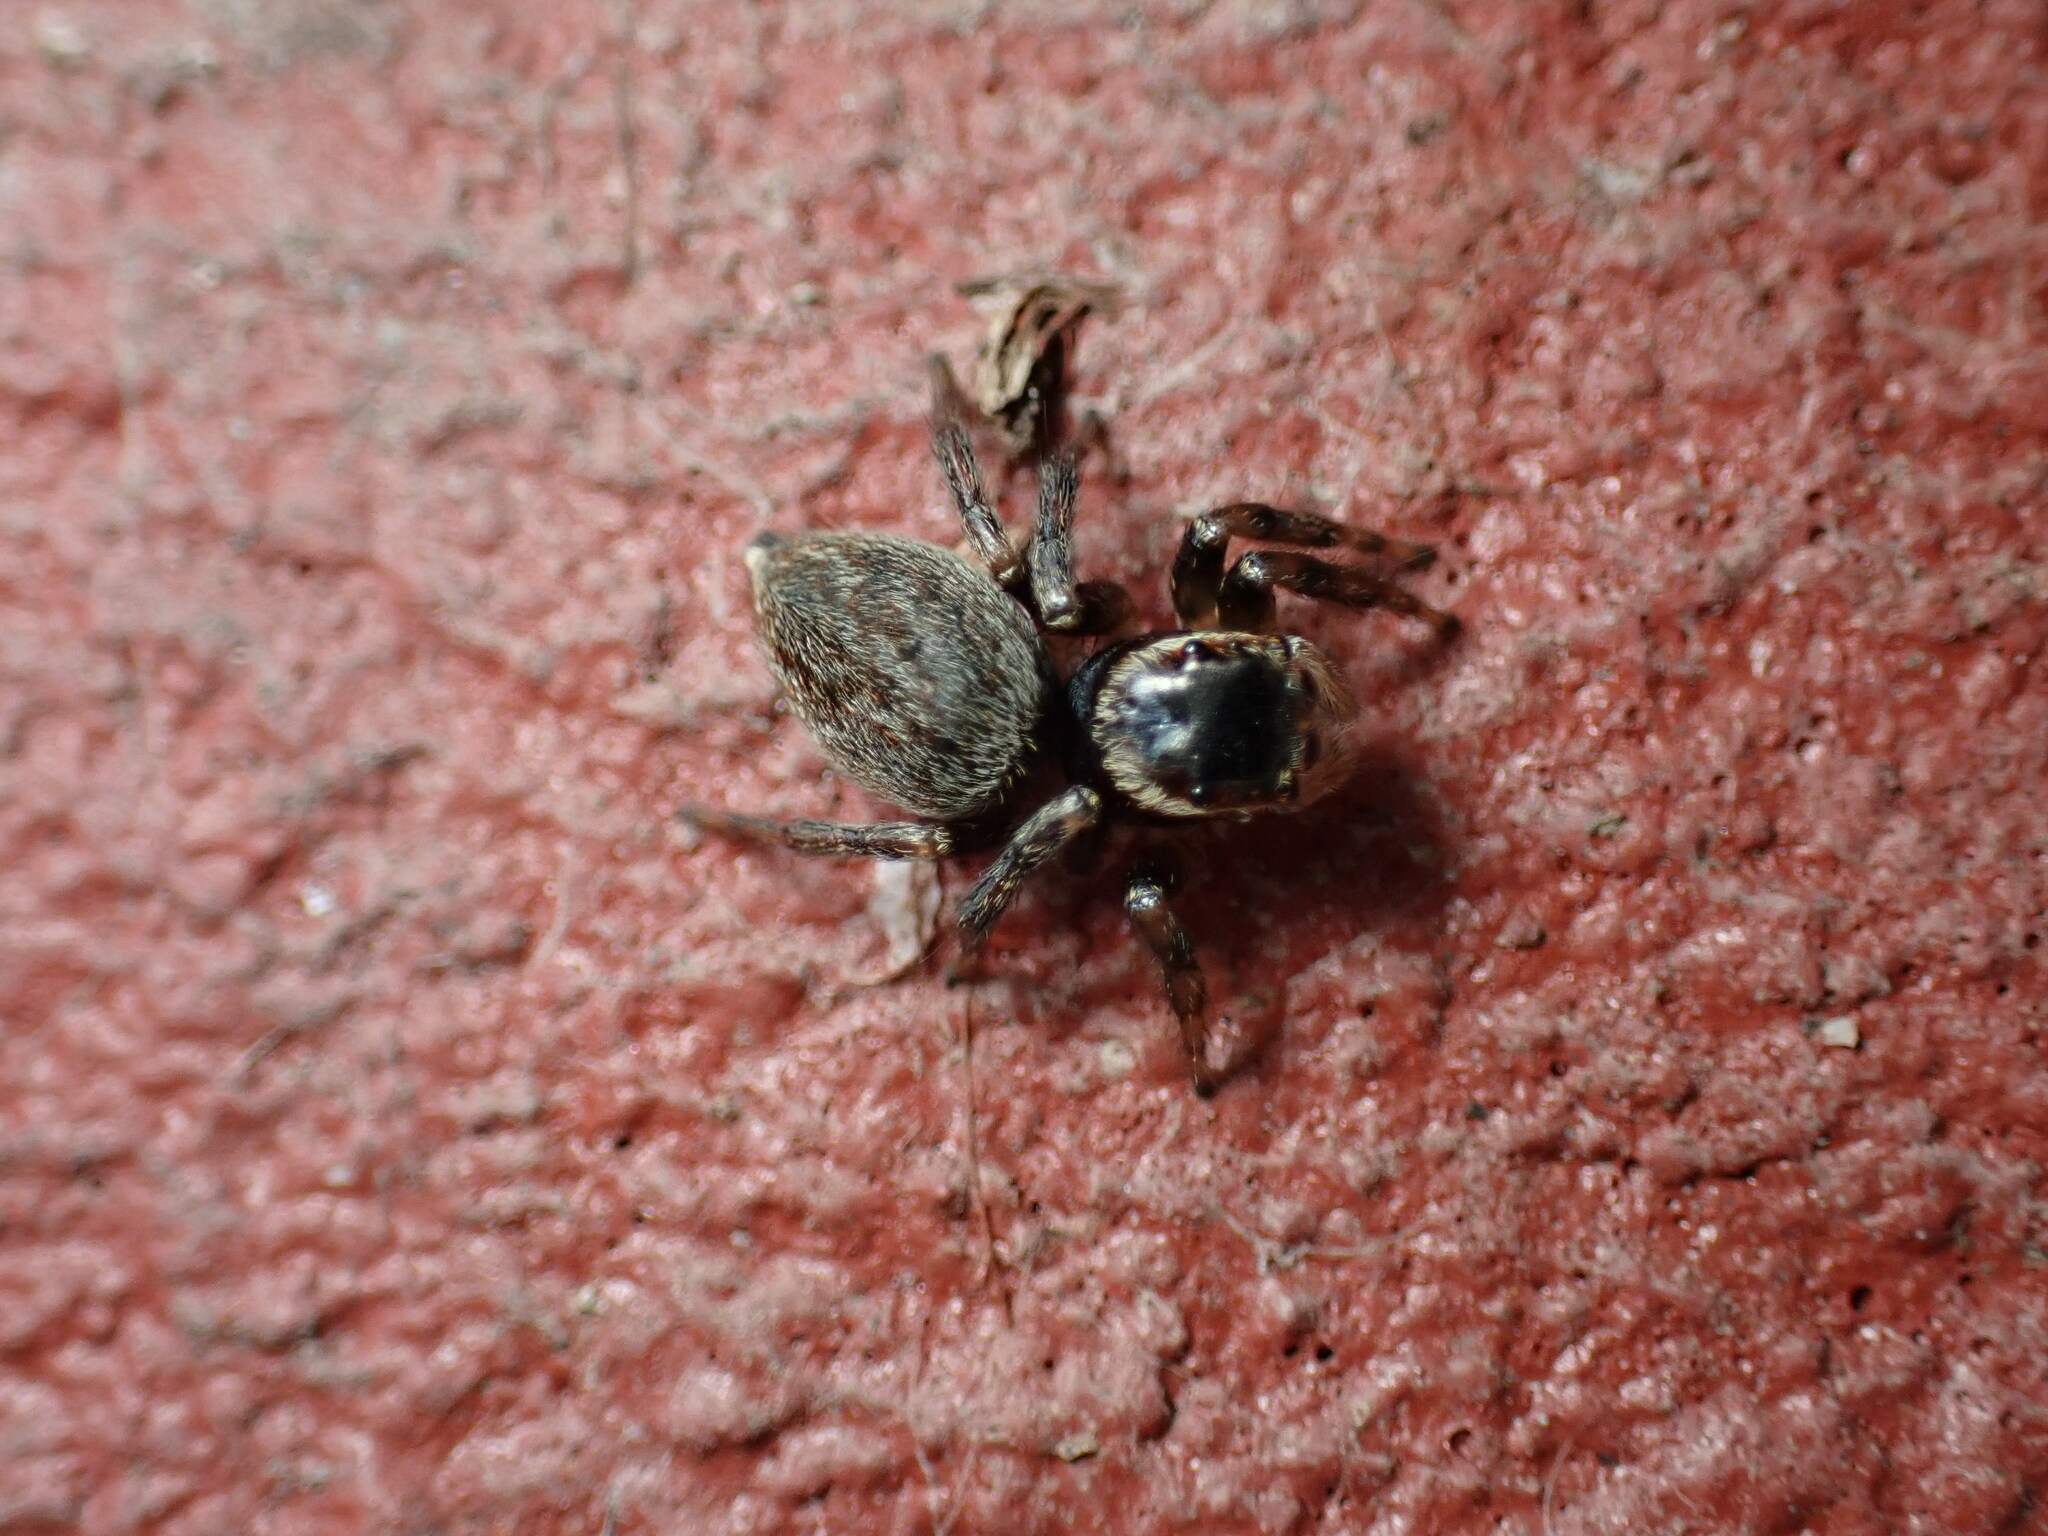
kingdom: Animalia
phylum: Arthropoda
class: Arachnida
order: Araneae
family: Salticidae
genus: Maratus
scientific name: Maratus griseus
